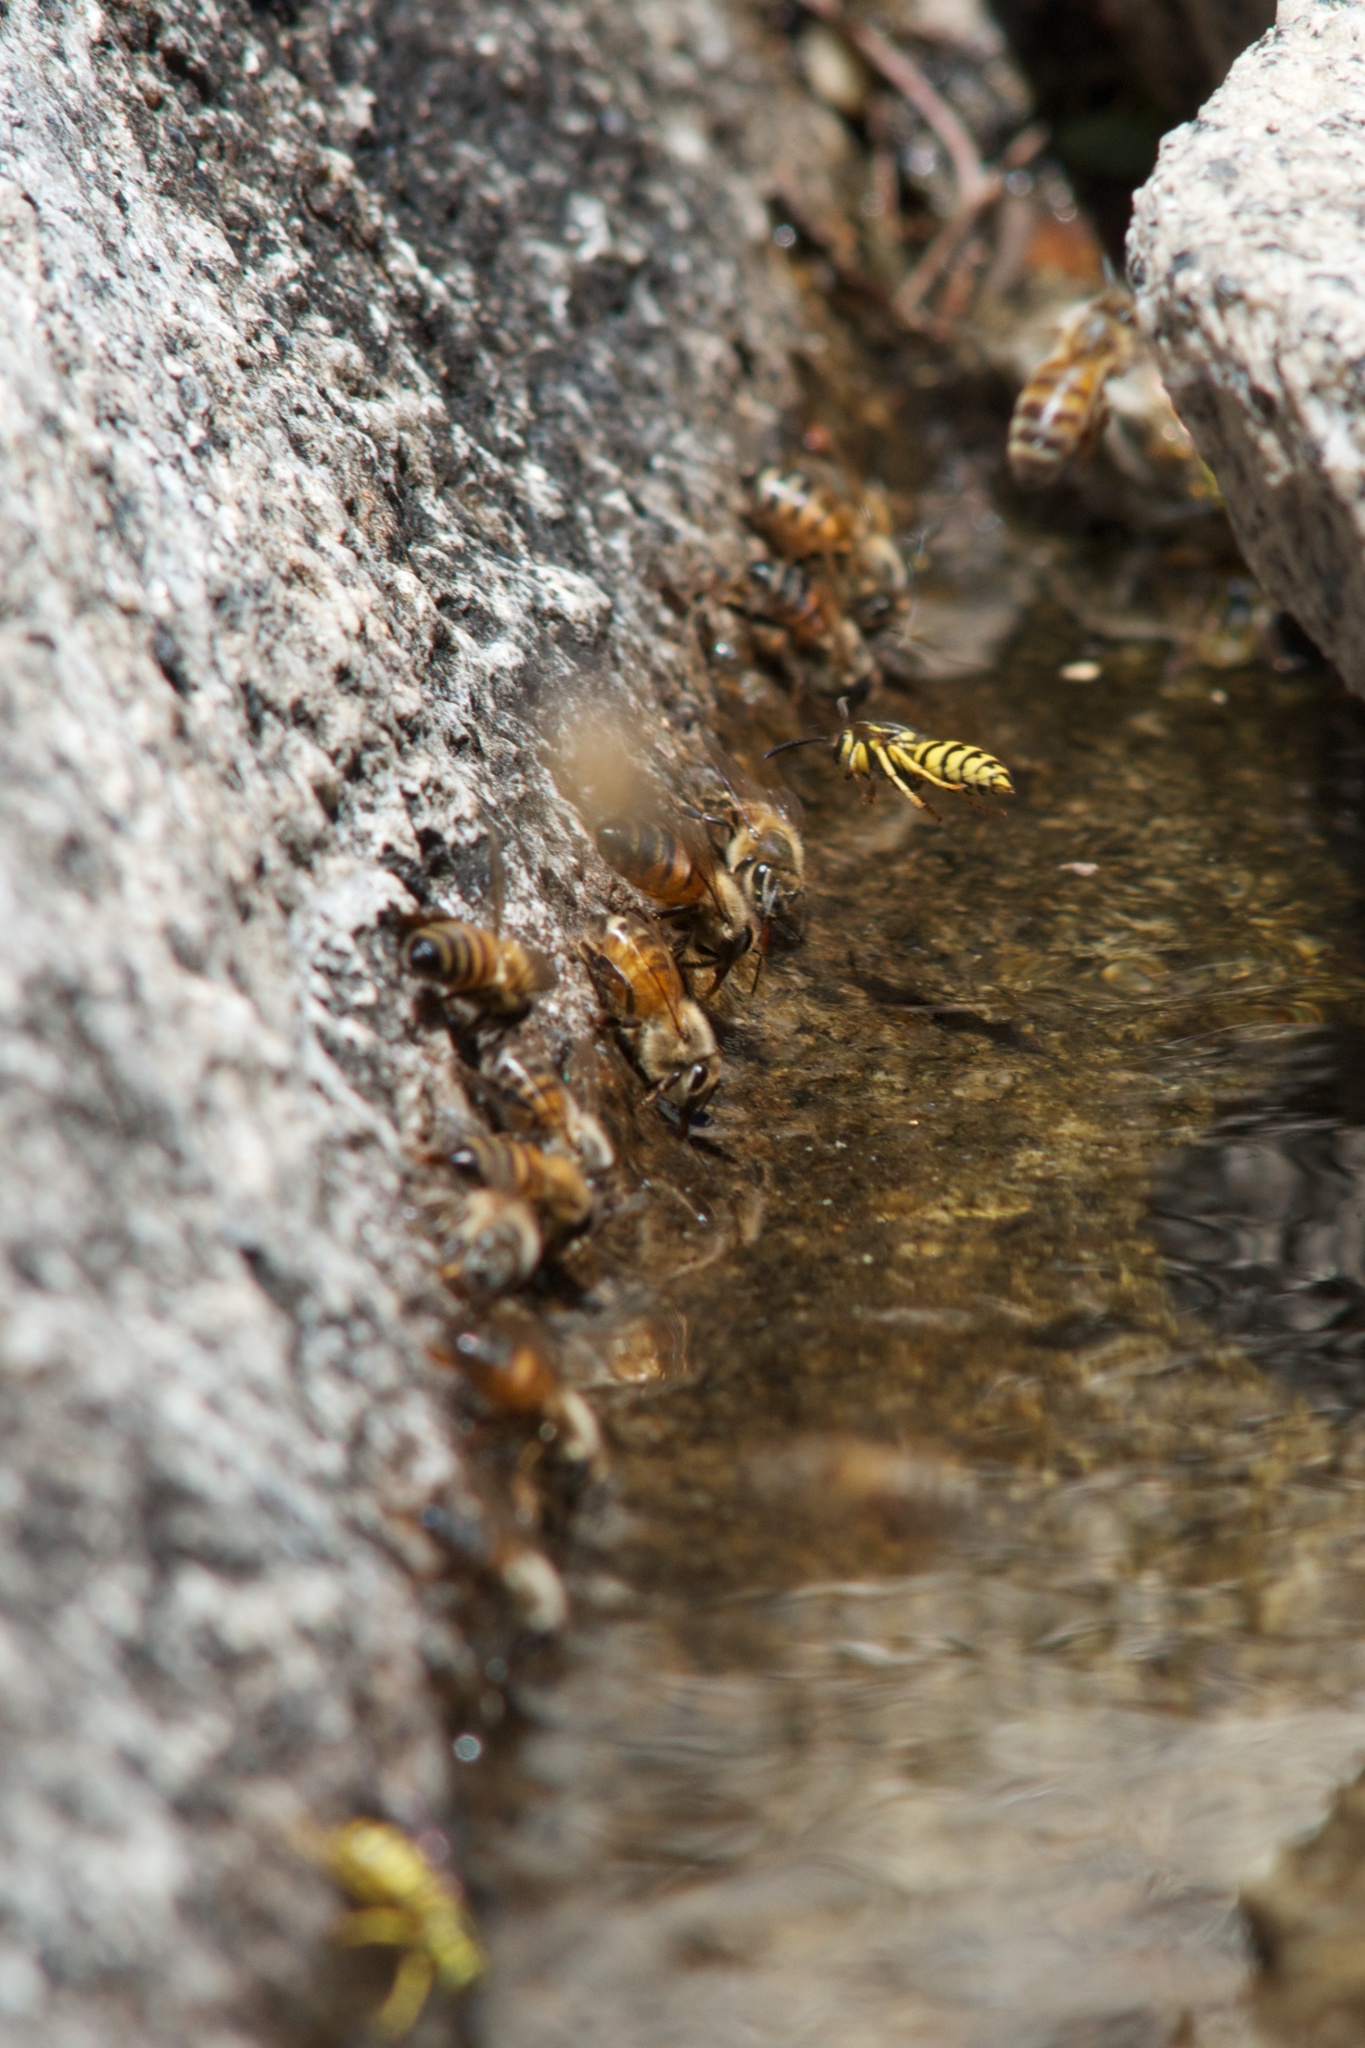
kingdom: Animalia
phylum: Arthropoda
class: Insecta
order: Hymenoptera
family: Apidae
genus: Apis
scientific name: Apis mellifera
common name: Honey bee
